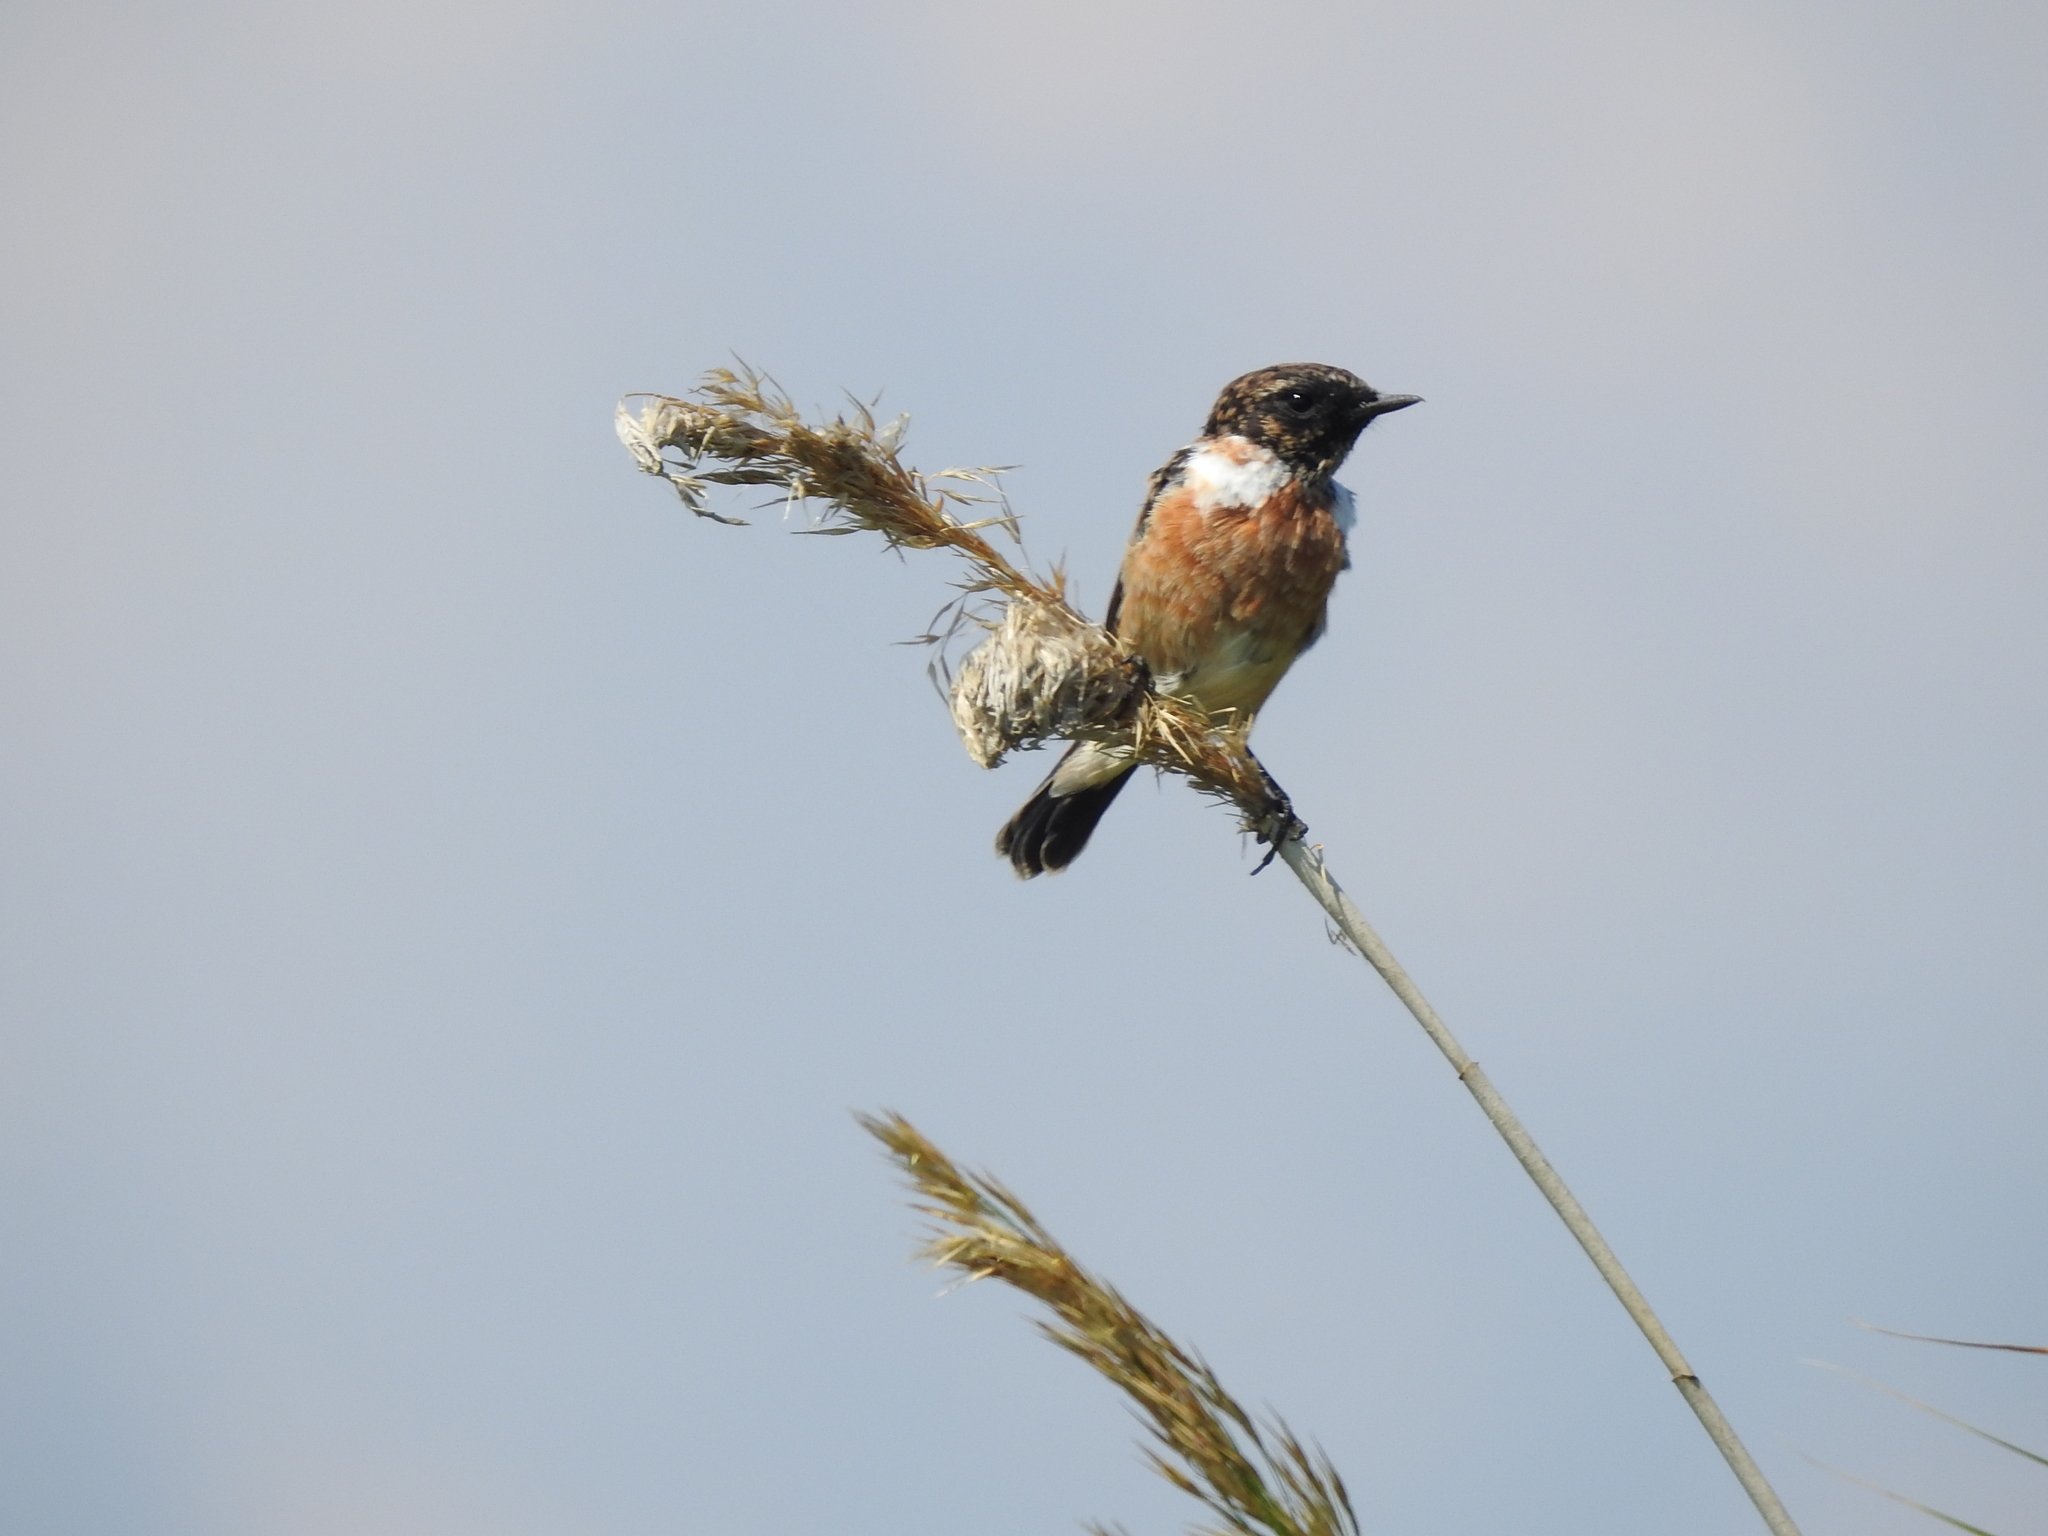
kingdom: Animalia
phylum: Chordata
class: Aves
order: Passeriformes
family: Muscicapidae
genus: Saxicola
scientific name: Saxicola maurus
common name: Siberian stonechat
